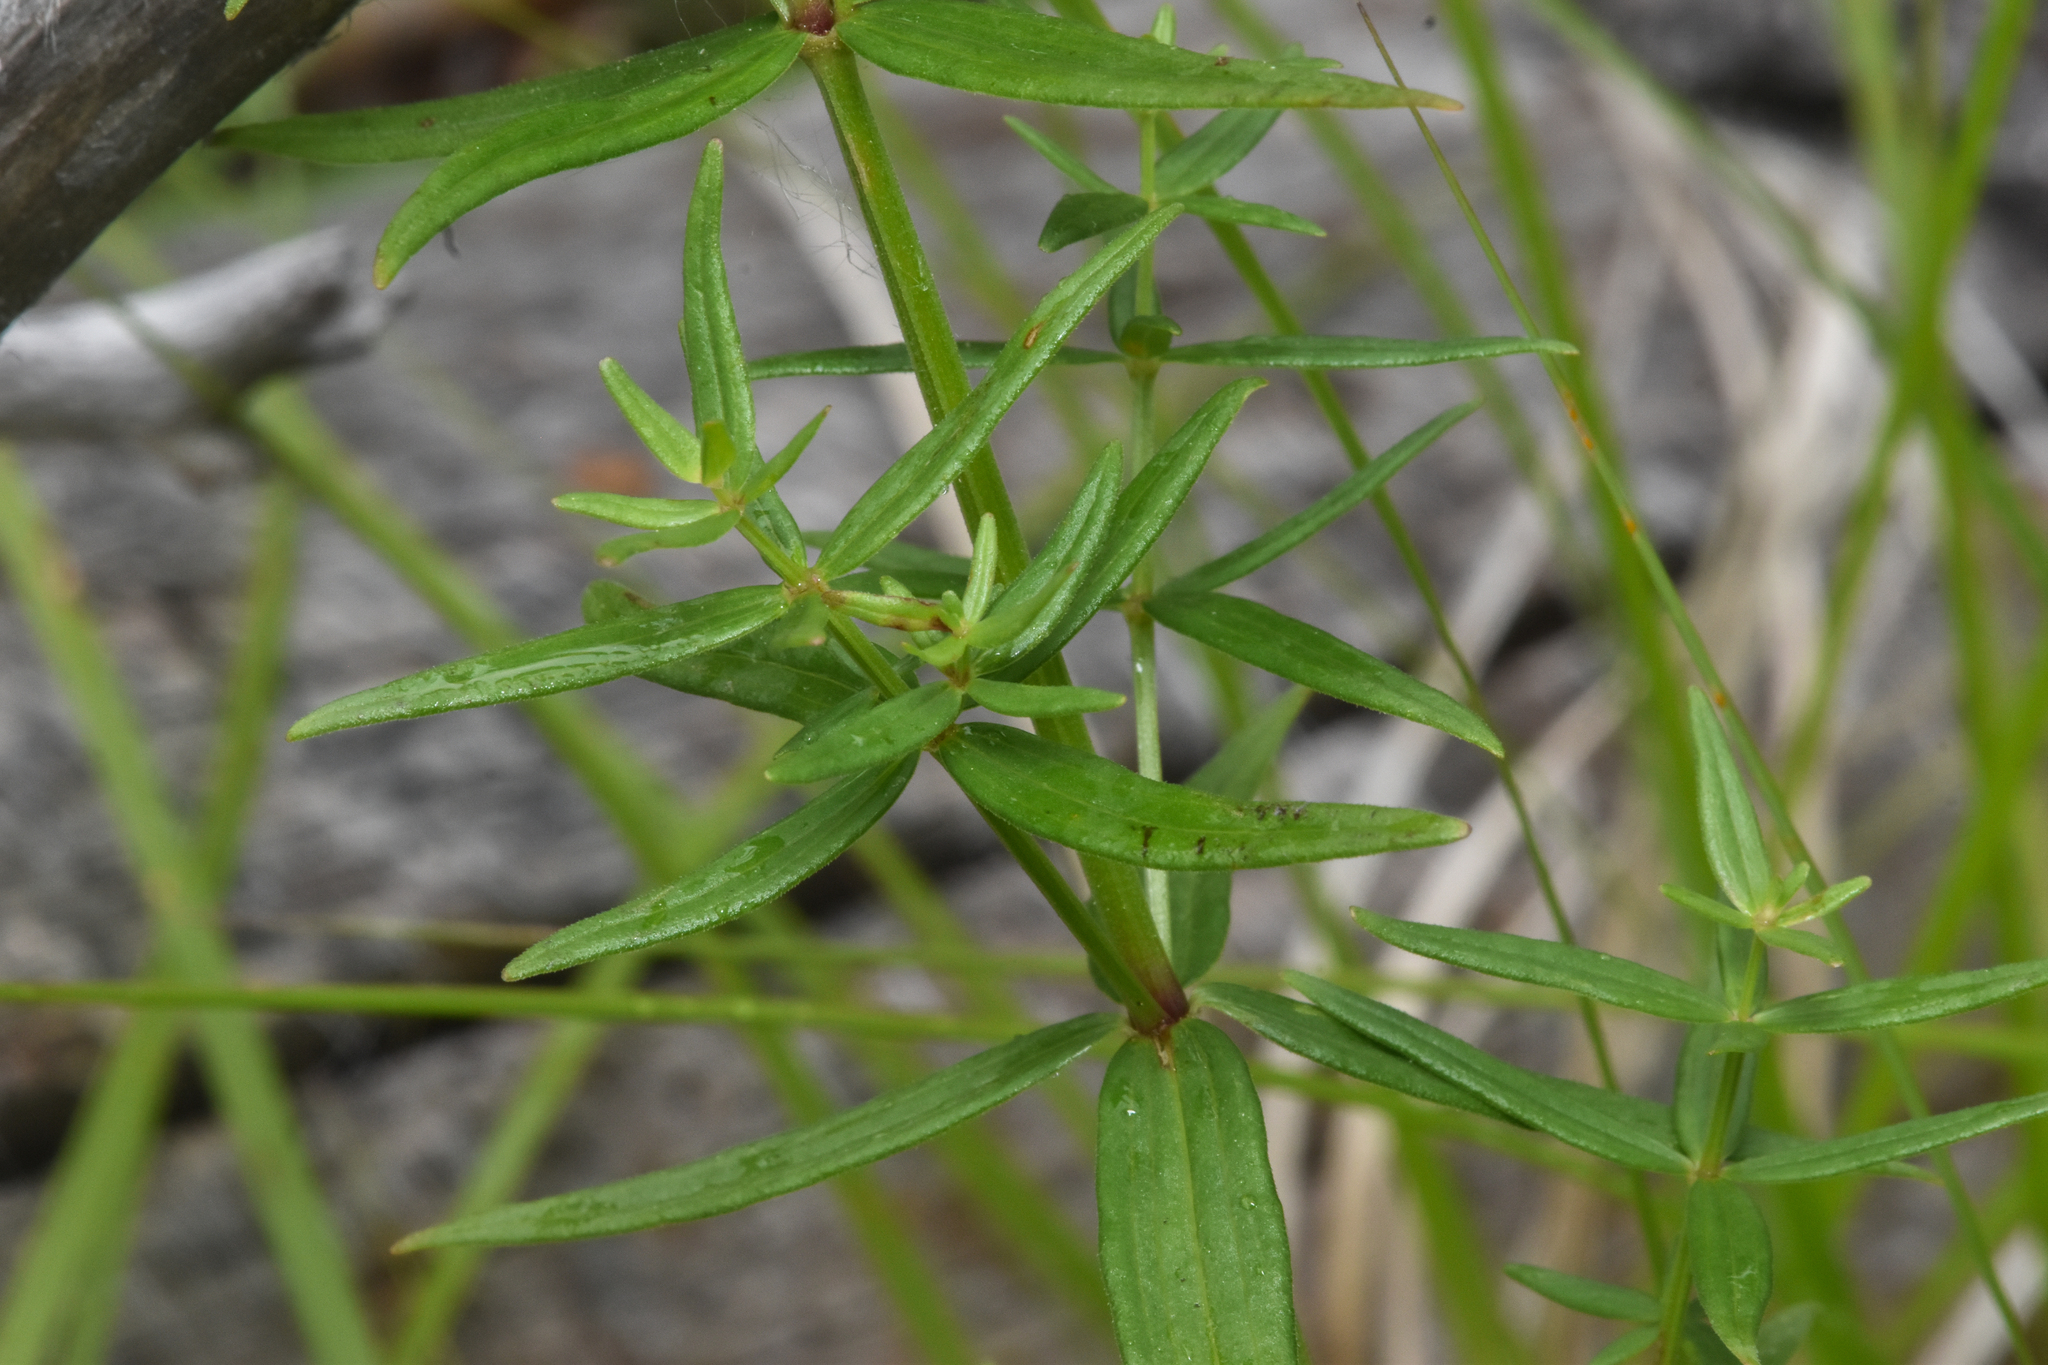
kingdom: Plantae
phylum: Tracheophyta
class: Magnoliopsida
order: Gentianales
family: Rubiaceae
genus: Galium
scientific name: Galium boreale
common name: Northern bedstraw
